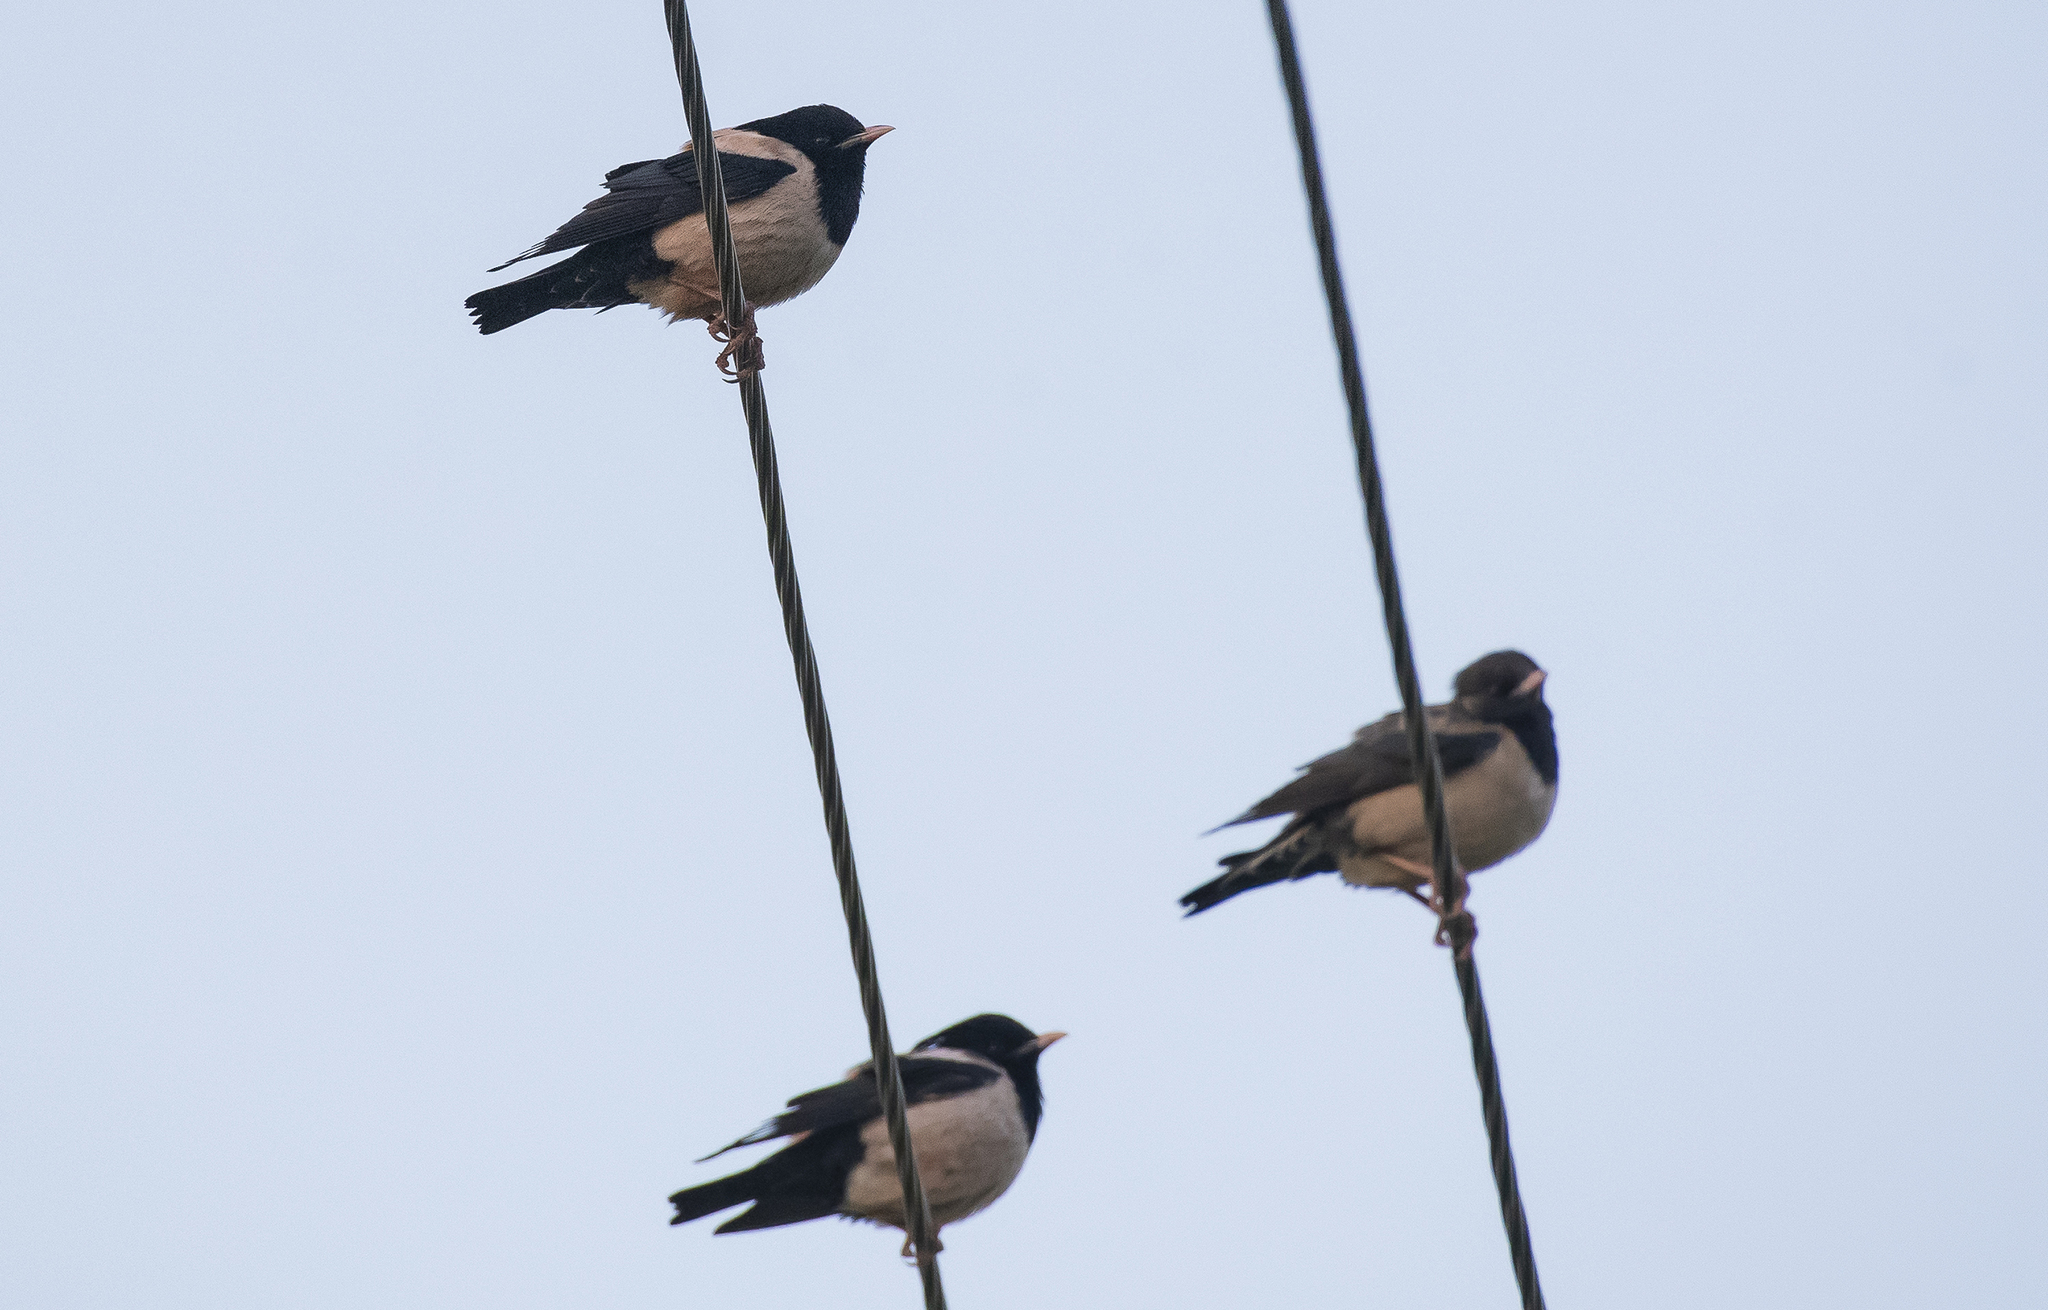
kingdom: Animalia
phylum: Chordata
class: Aves
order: Passeriformes
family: Sturnidae
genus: Pastor
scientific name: Pastor roseus
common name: Rosy starling
